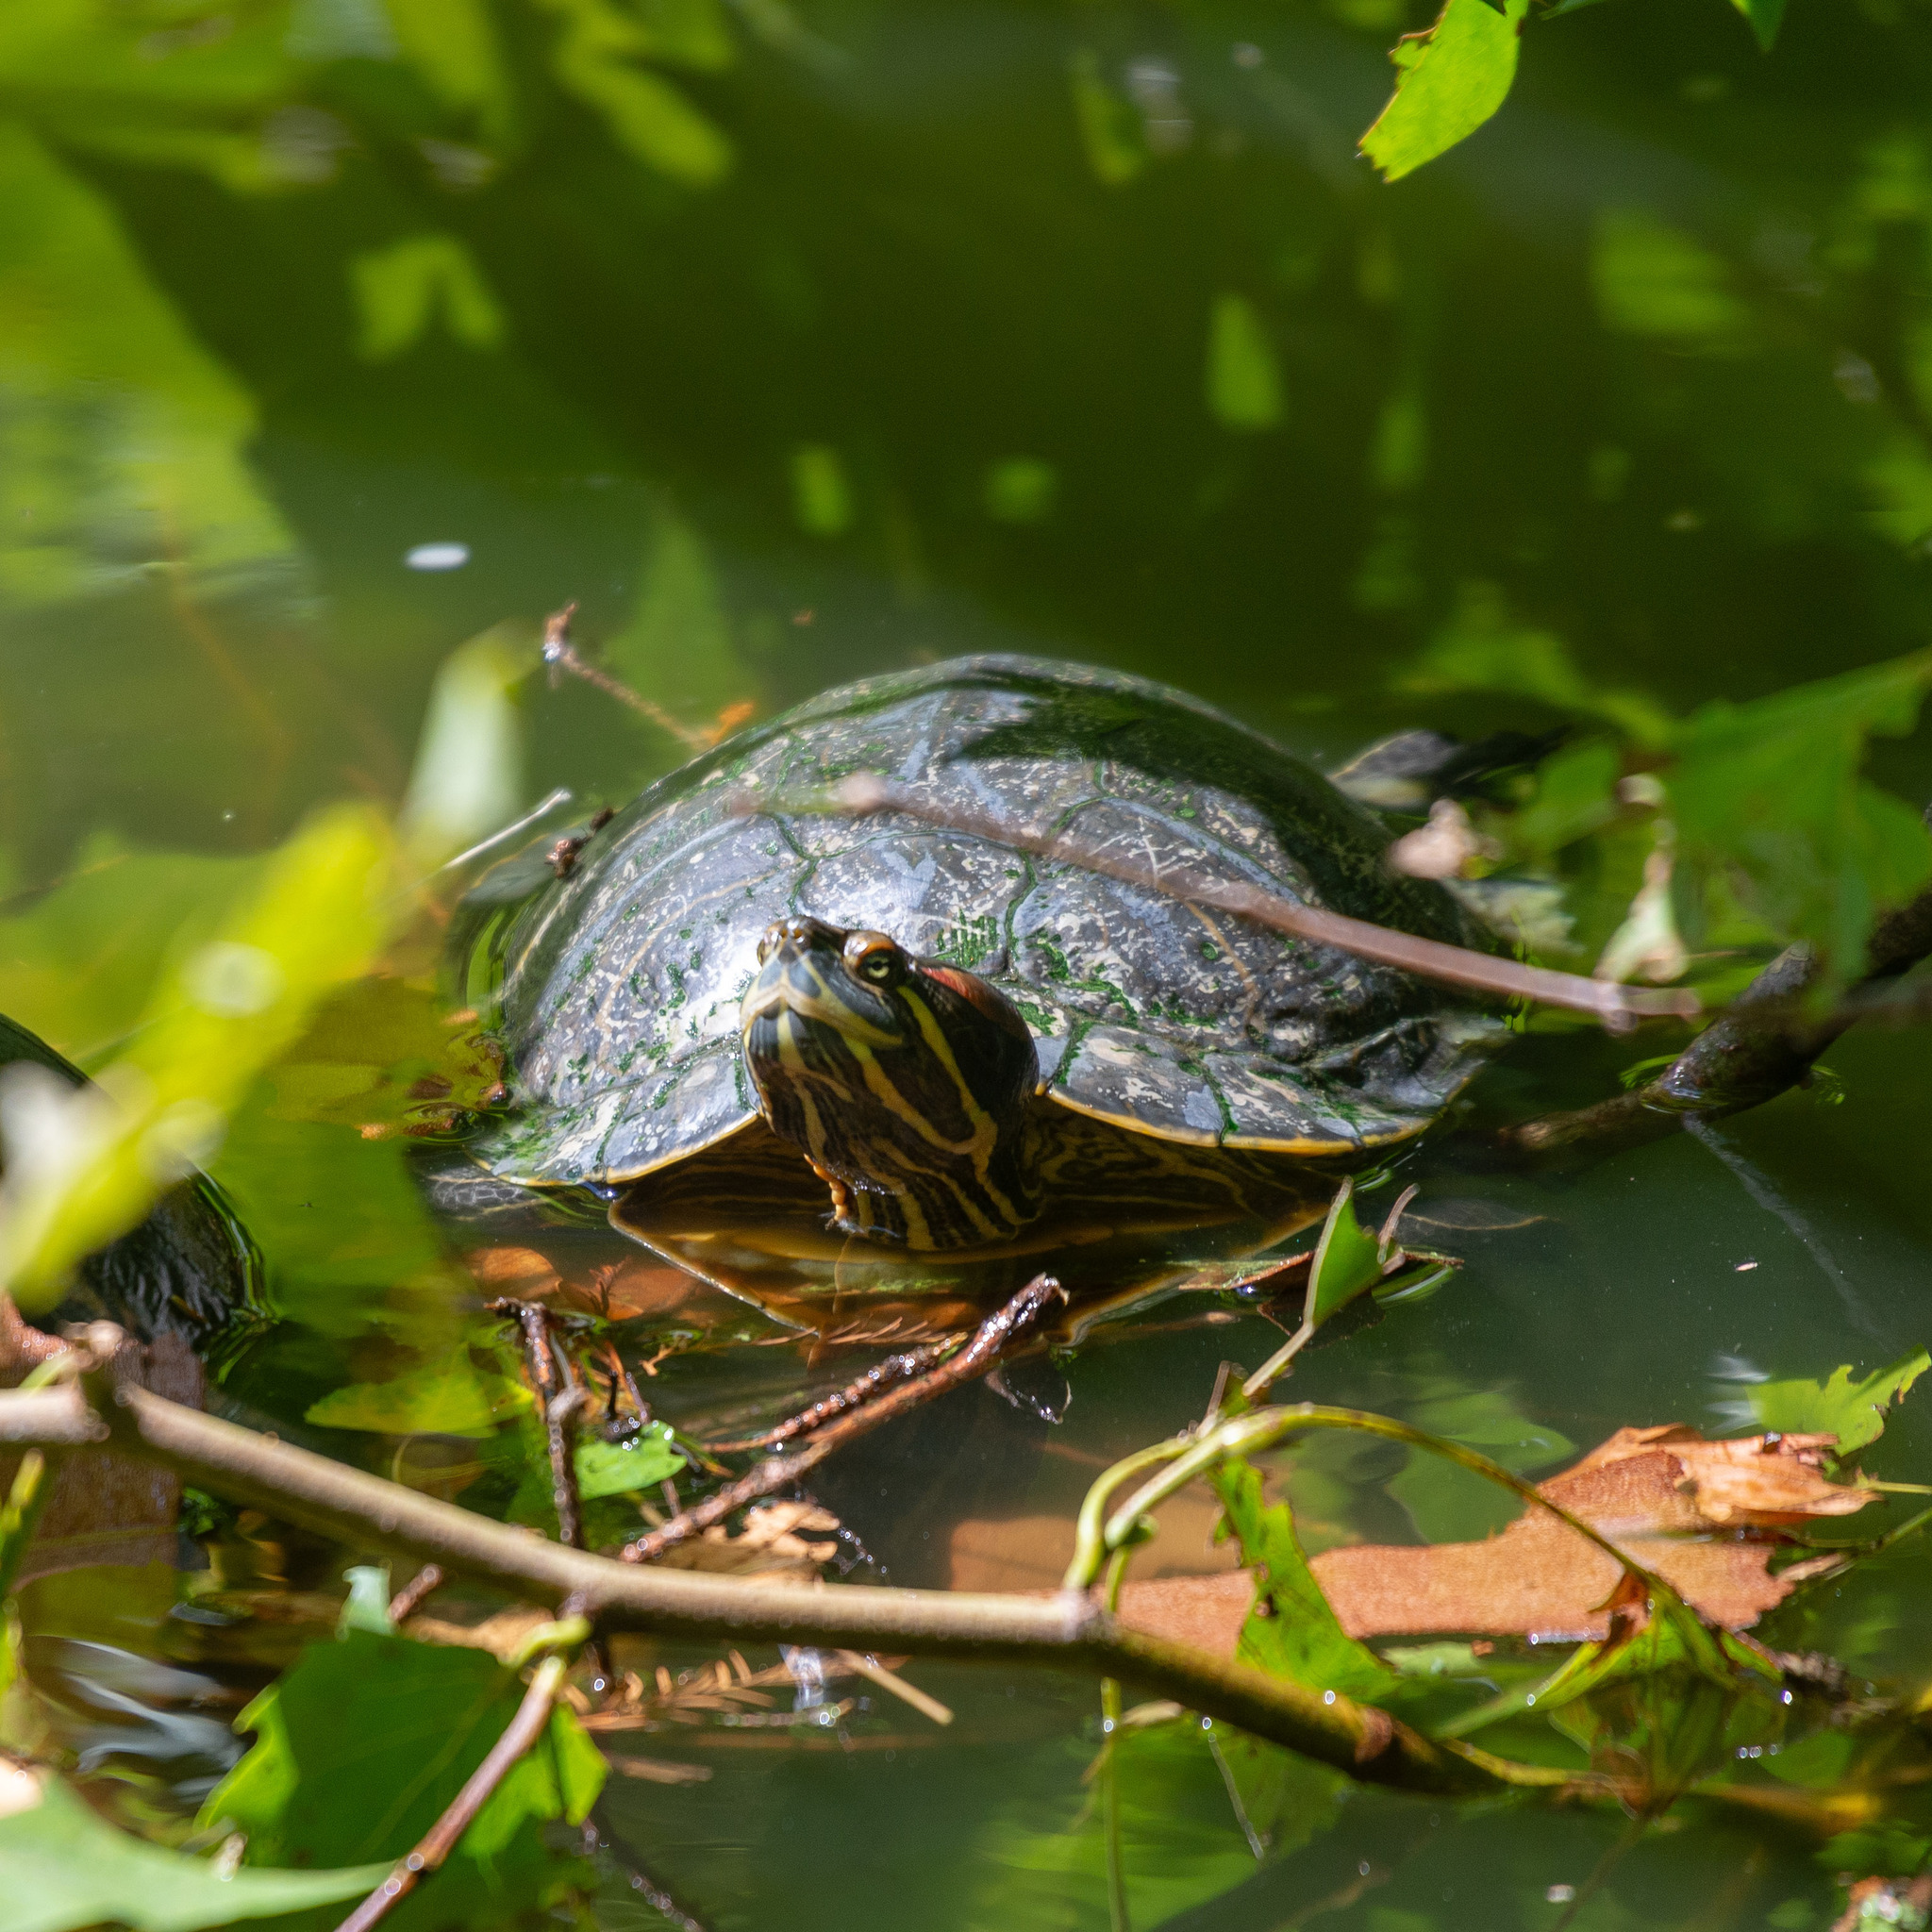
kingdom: Animalia
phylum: Chordata
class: Testudines
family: Emydidae
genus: Trachemys
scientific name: Trachemys scripta
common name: Slider
